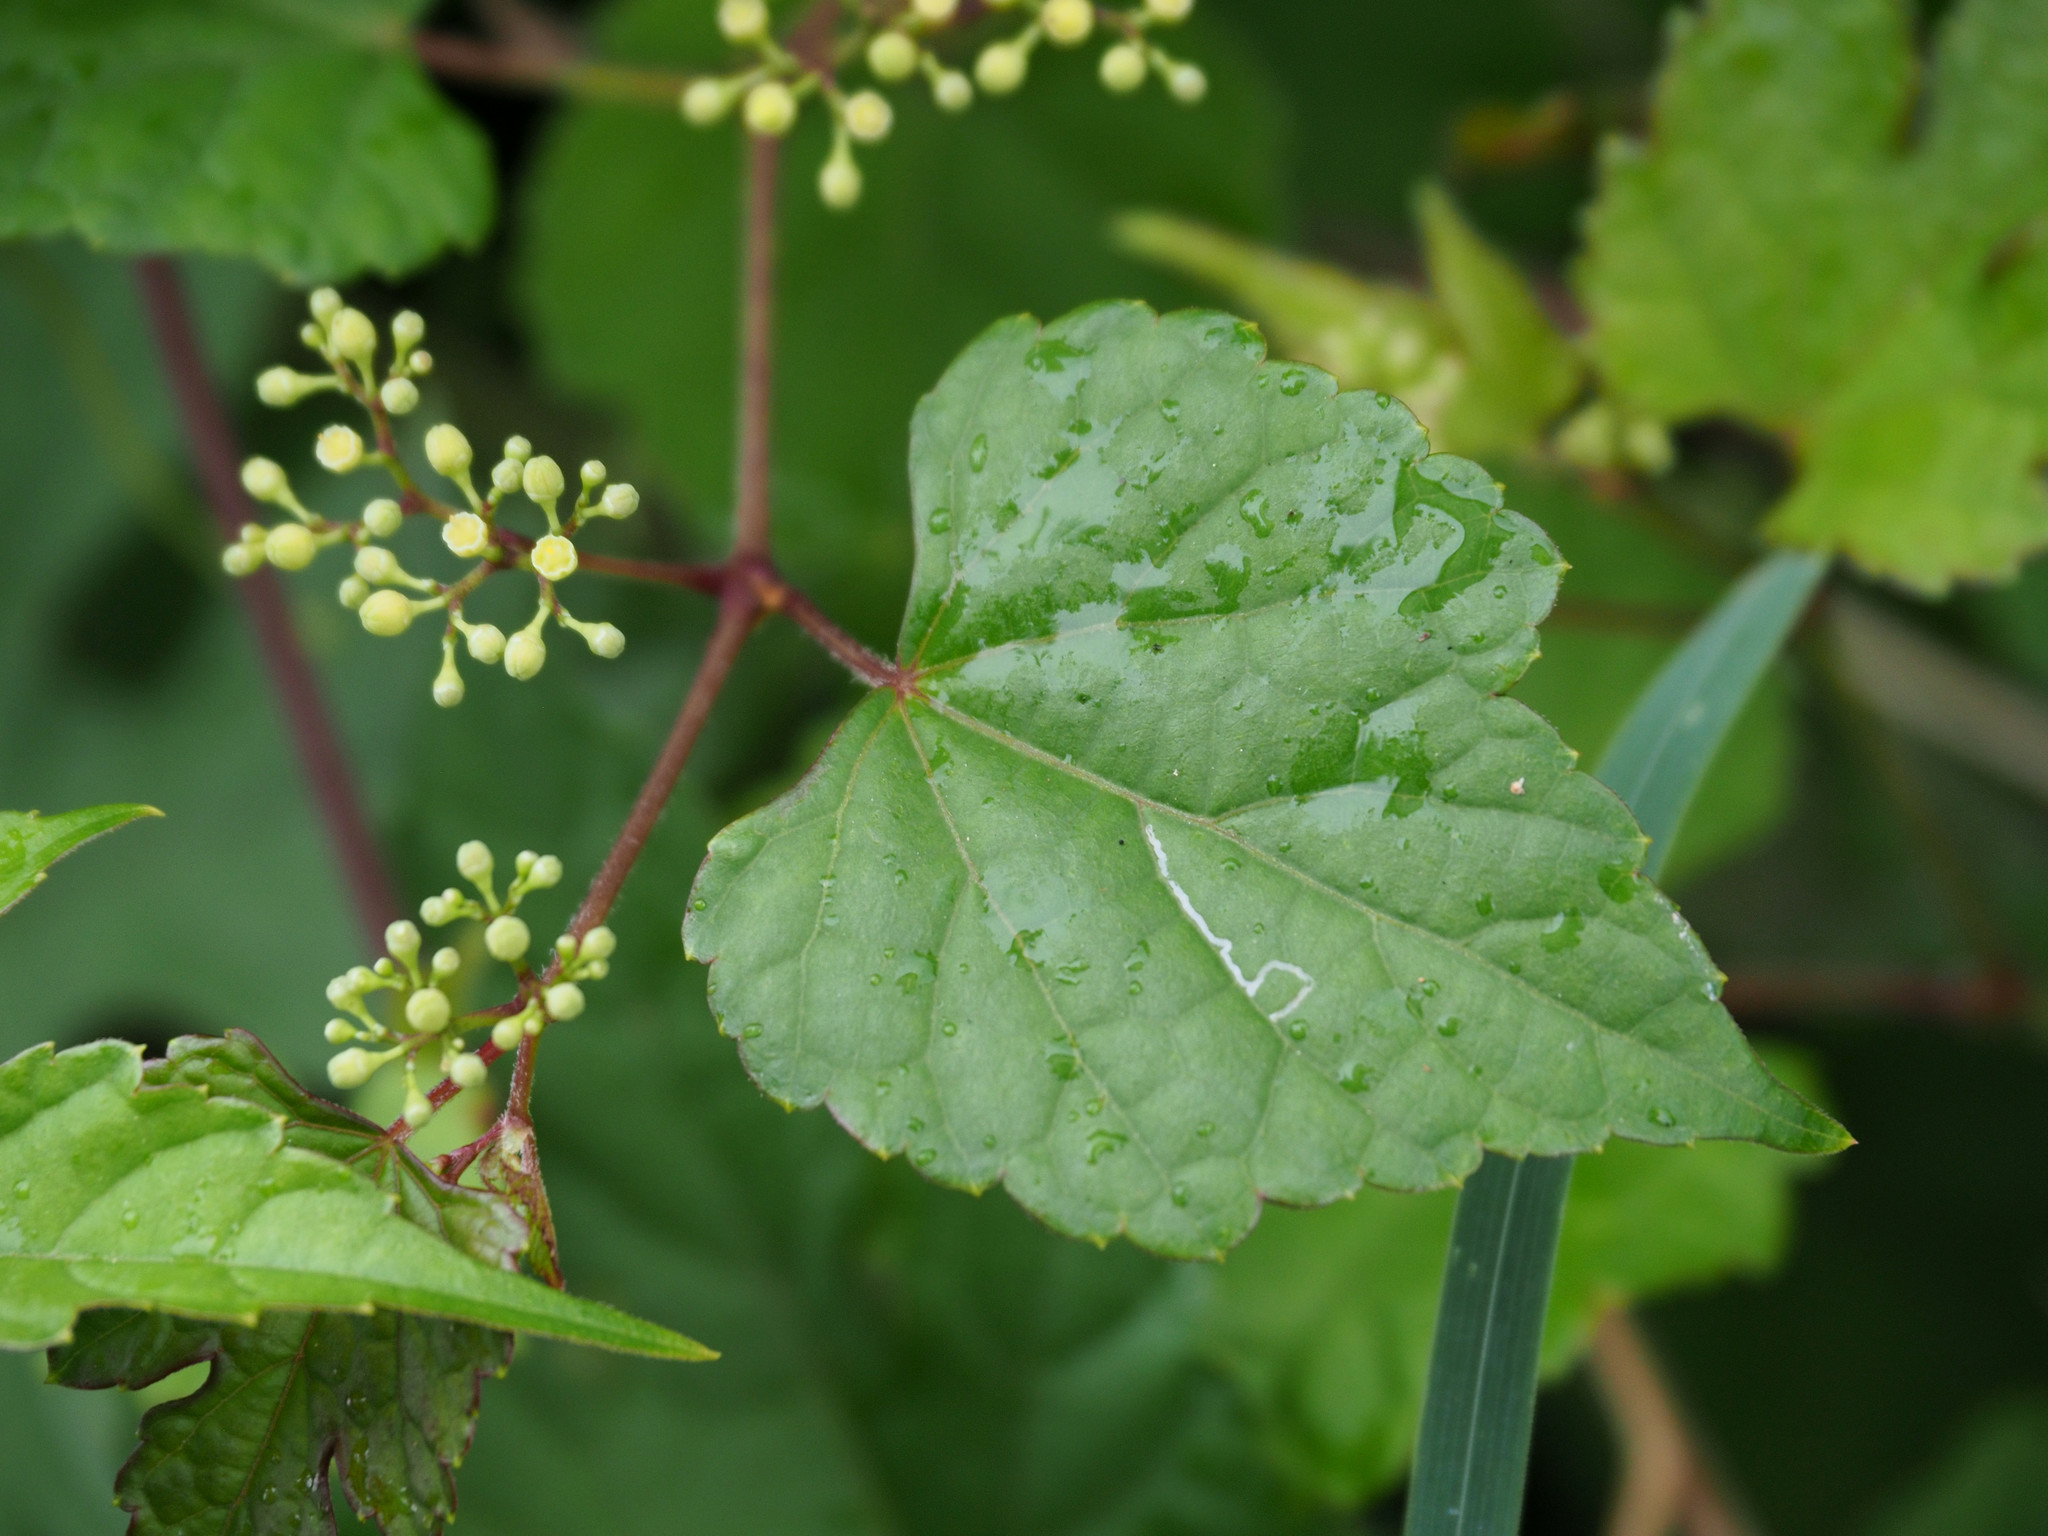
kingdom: Plantae
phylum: Tracheophyta
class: Magnoliopsida
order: Vitales
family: Vitaceae
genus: Ampelopsis
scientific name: Ampelopsis glandulosa
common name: Amur peppervine
